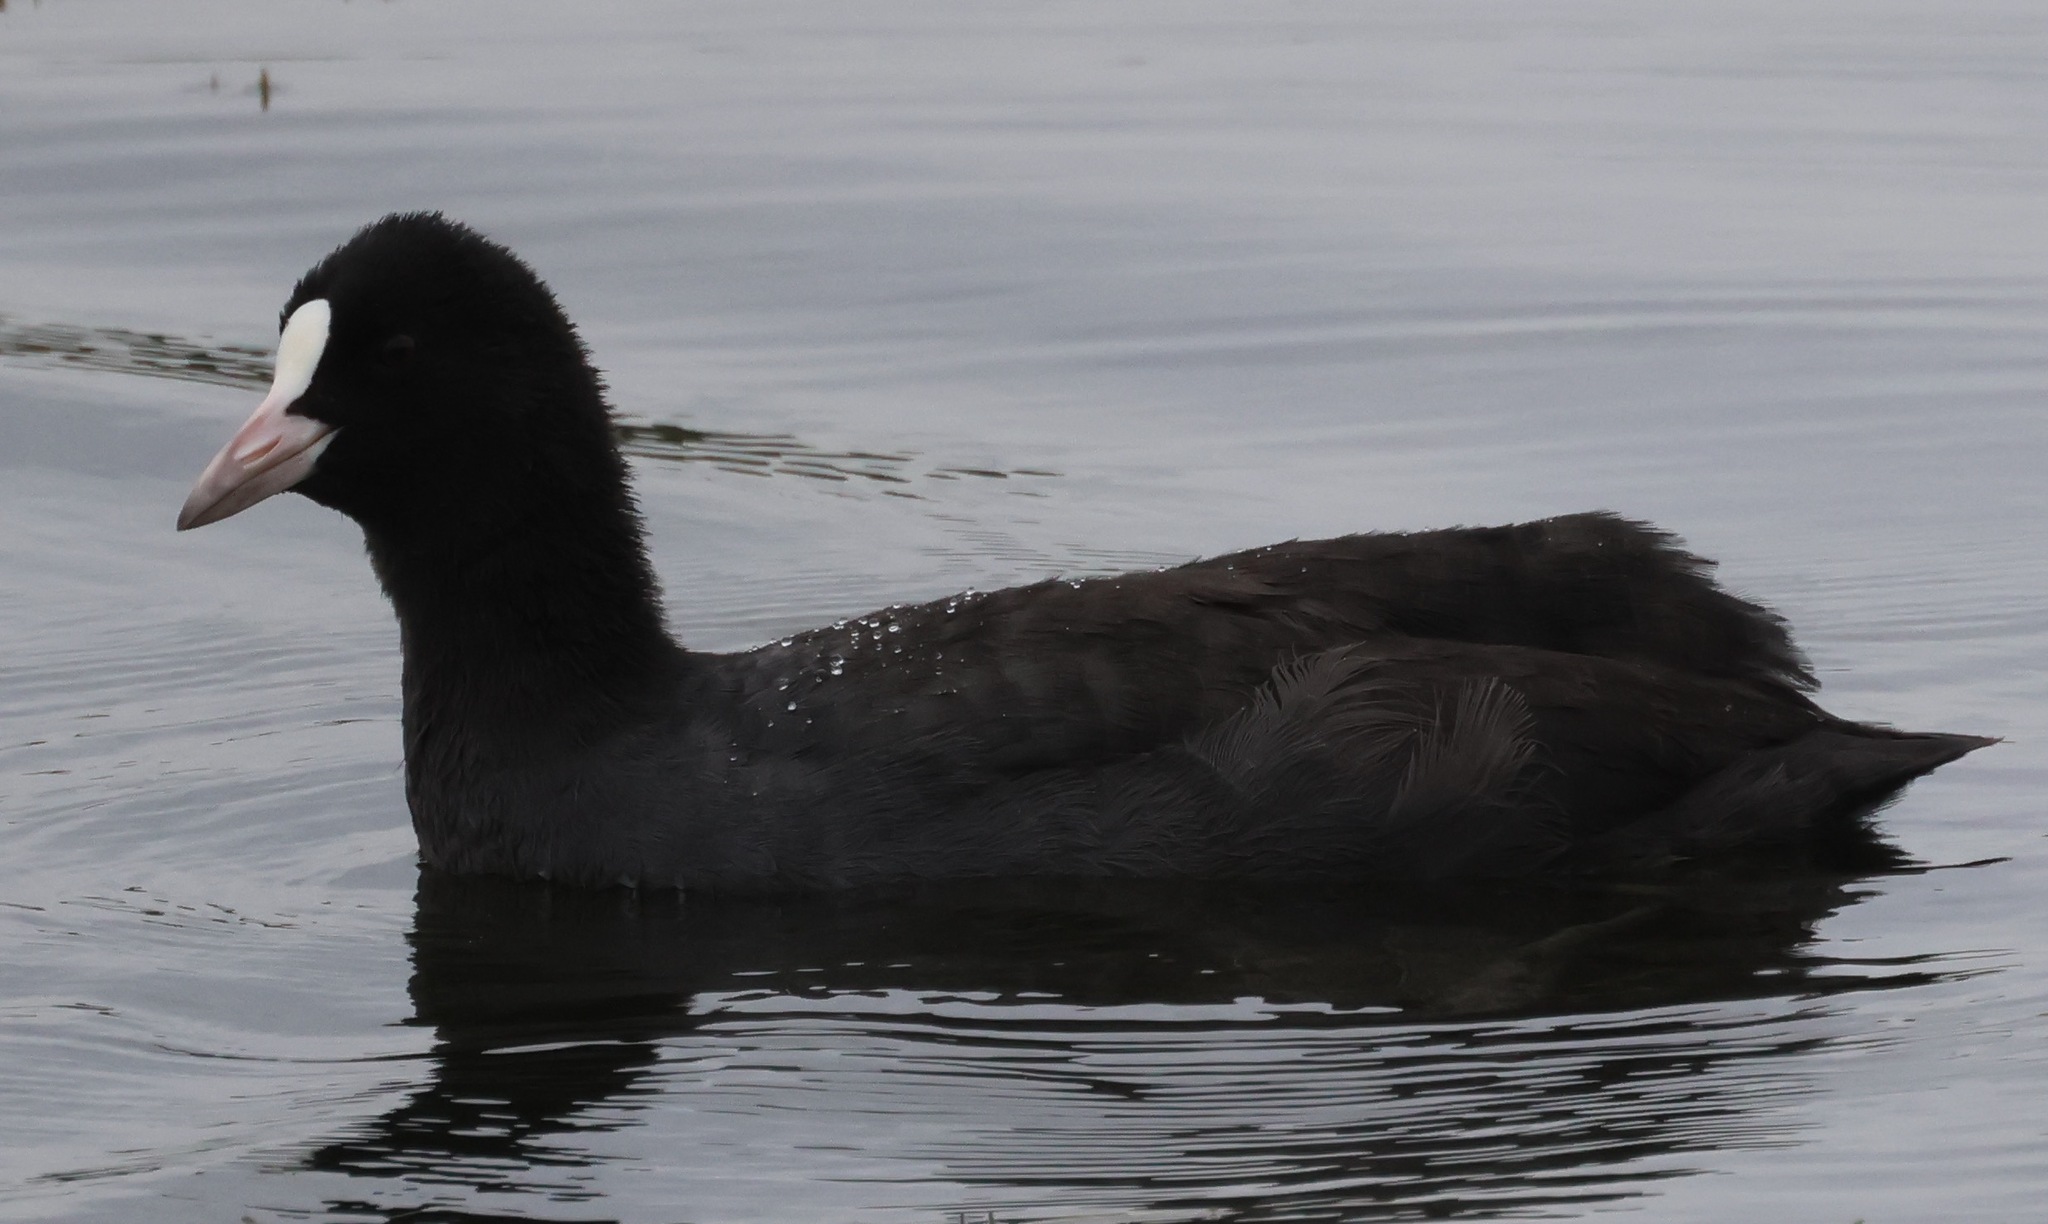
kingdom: Animalia
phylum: Chordata
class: Aves
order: Gruiformes
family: Rallidae
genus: Fulica
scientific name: Fulica atra
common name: Eurasian coot
